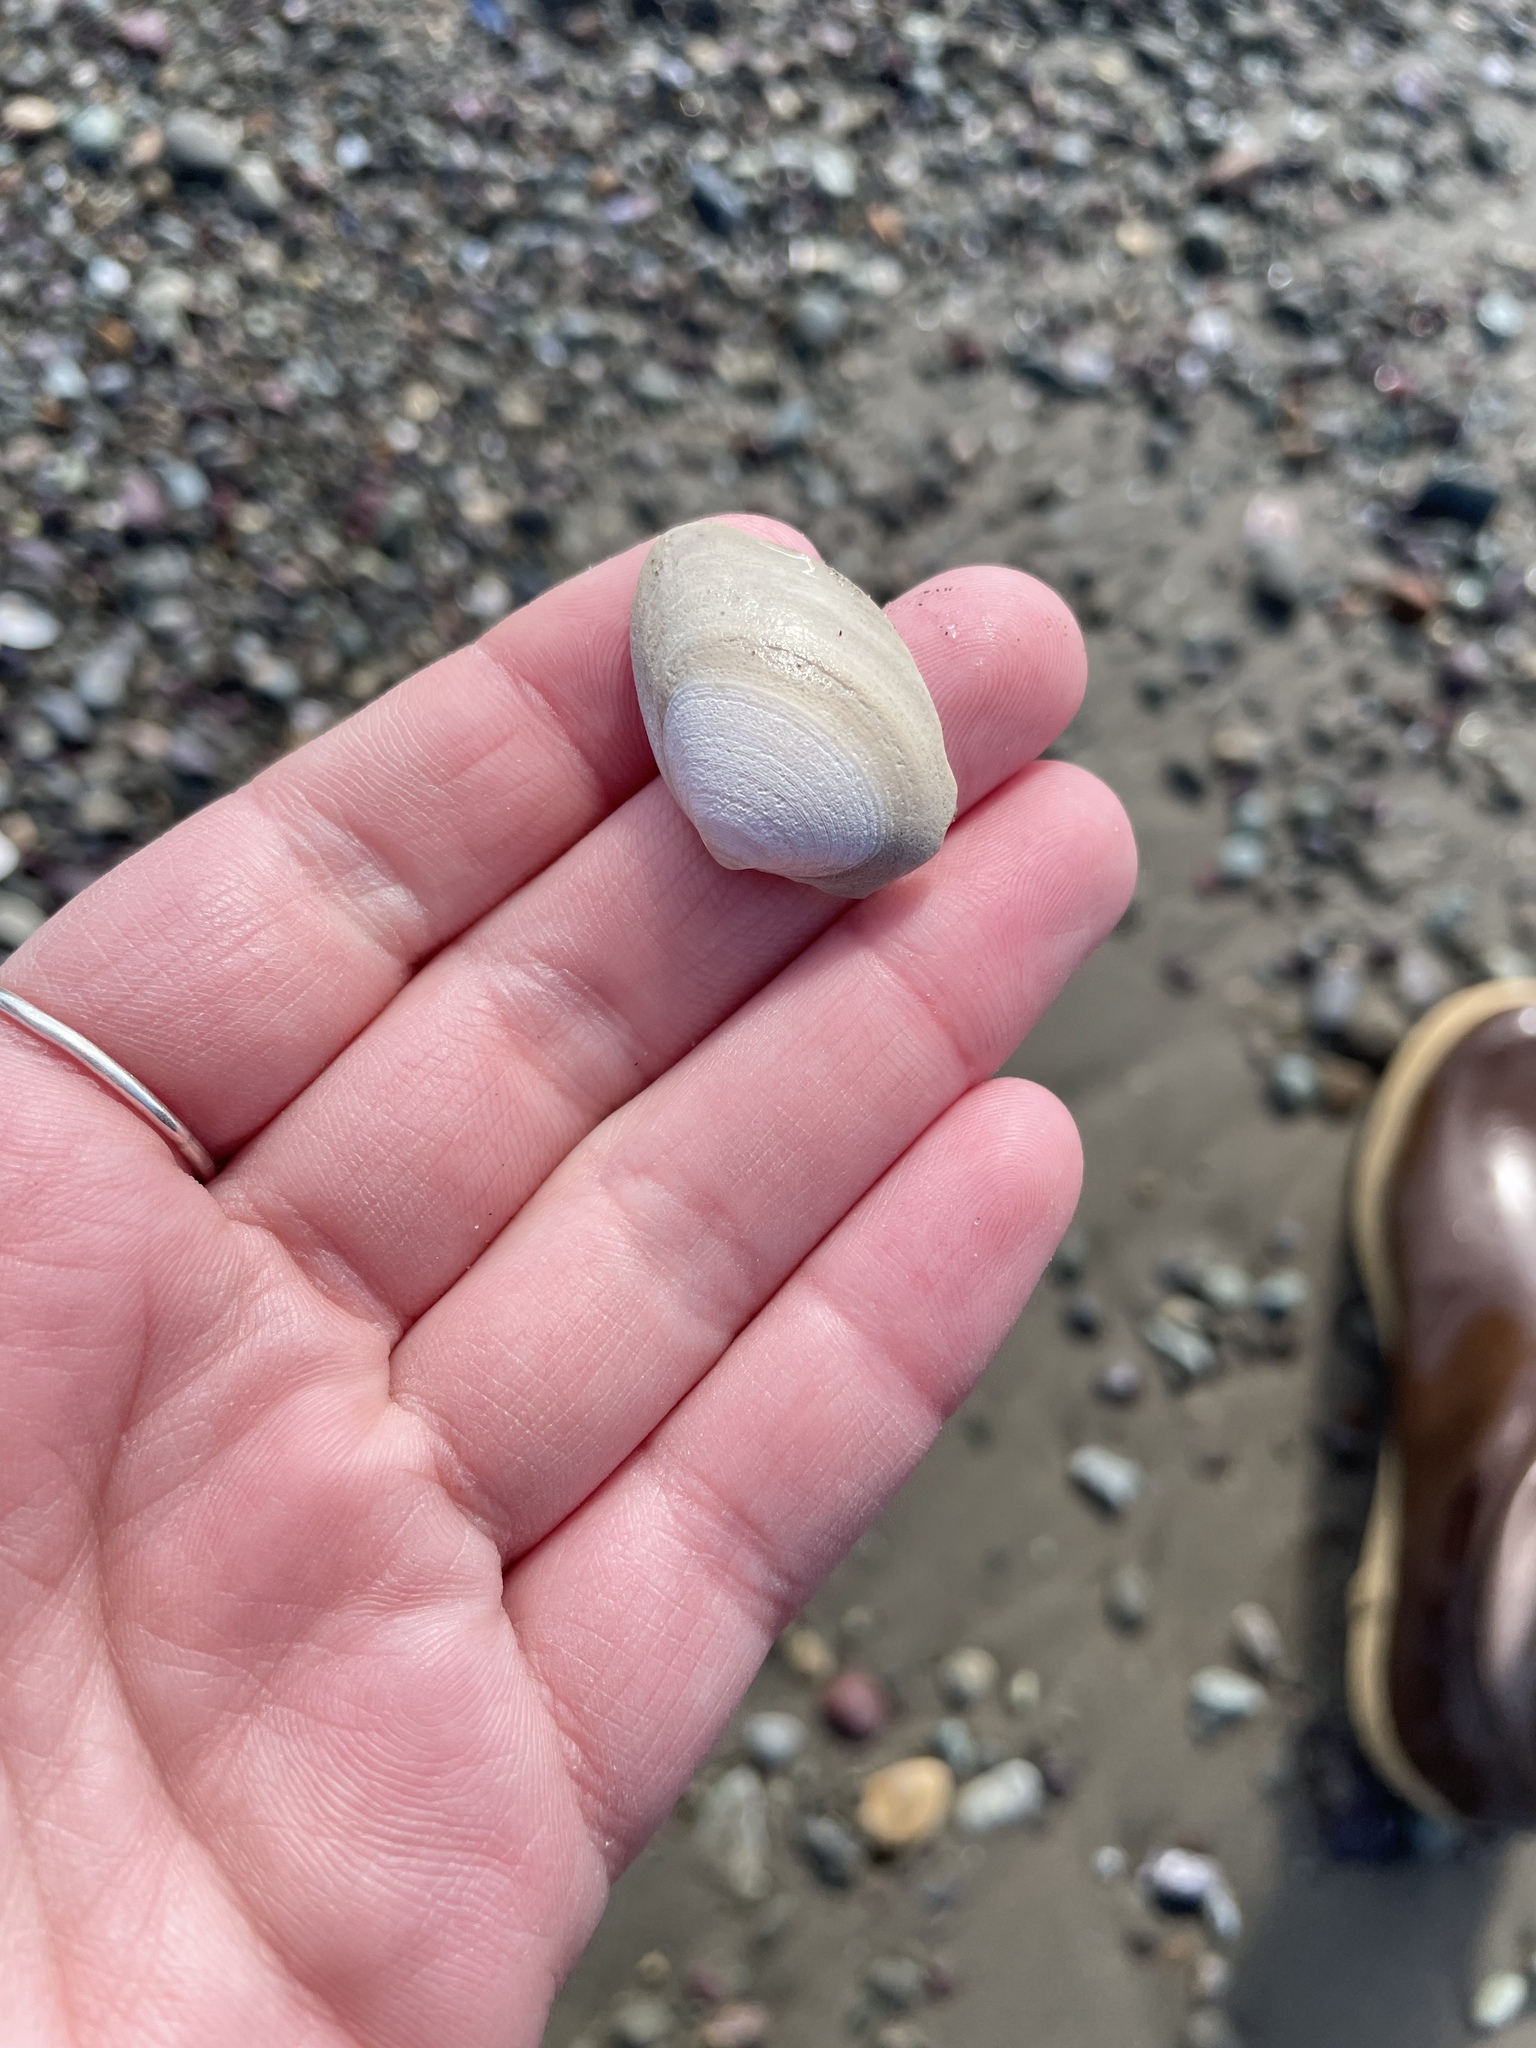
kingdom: Animalia
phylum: Mollusca
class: Bivalvia
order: Venerida
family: Mactridae
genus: Spisula
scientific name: Spisula solidissima
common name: Atlantic surf clam
